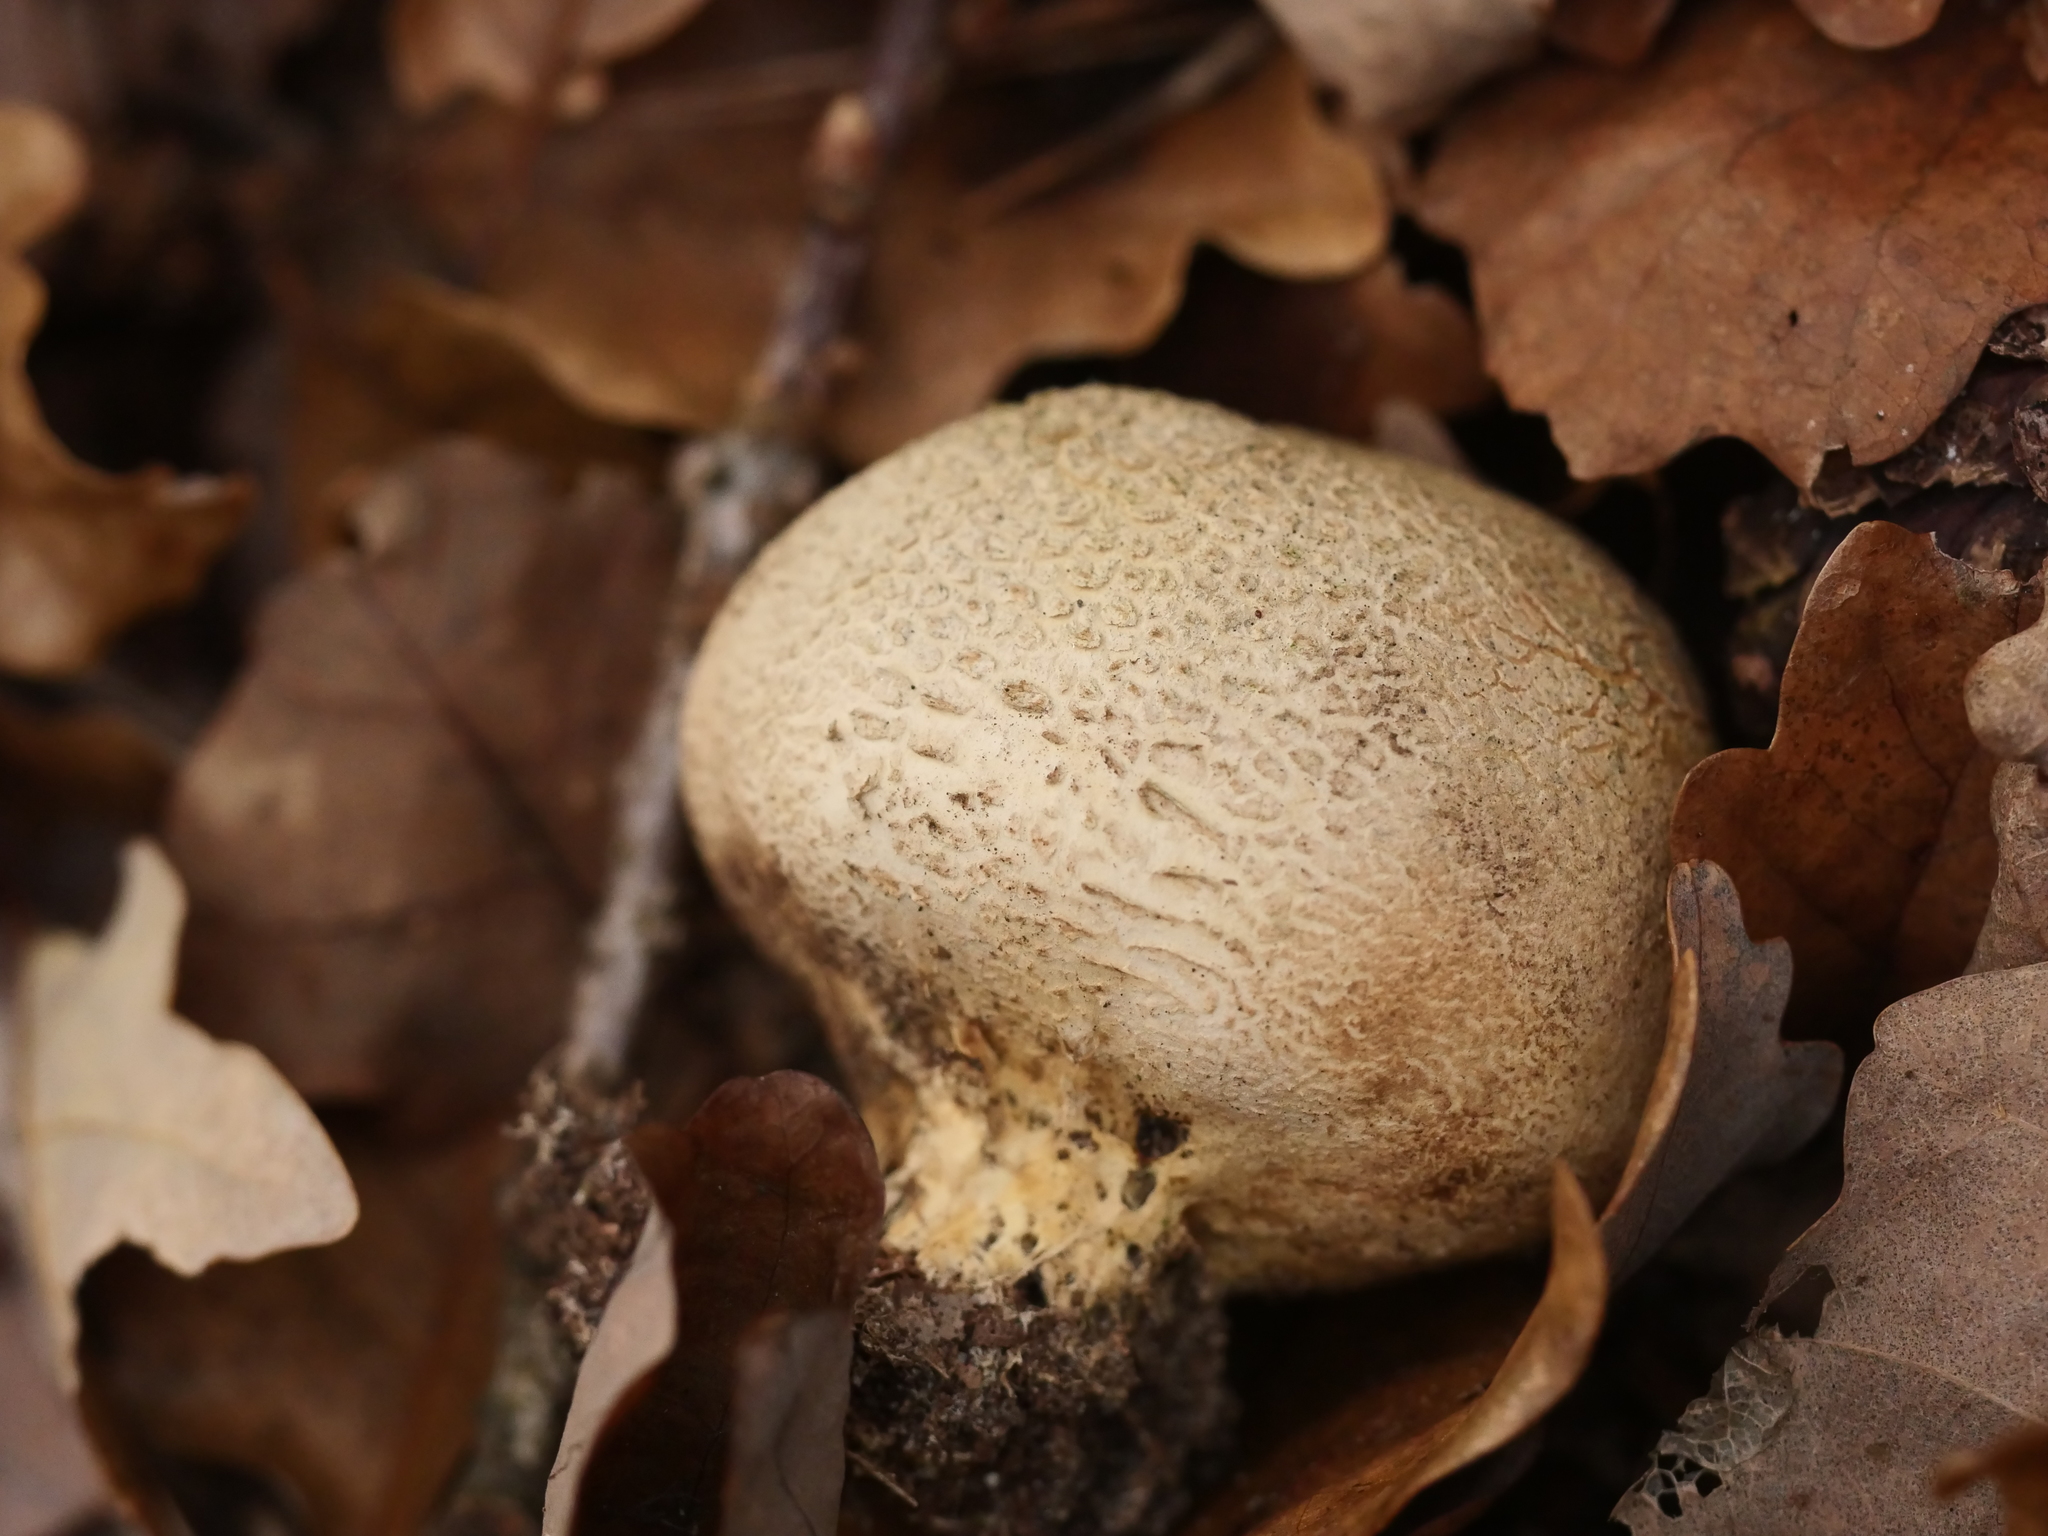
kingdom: Fungi
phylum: Basidiomycota
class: Agaricomycetes
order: Boletales
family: Sclerodermataceae
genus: Scleroderma
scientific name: Scleroderma citrinum
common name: Common earthball
